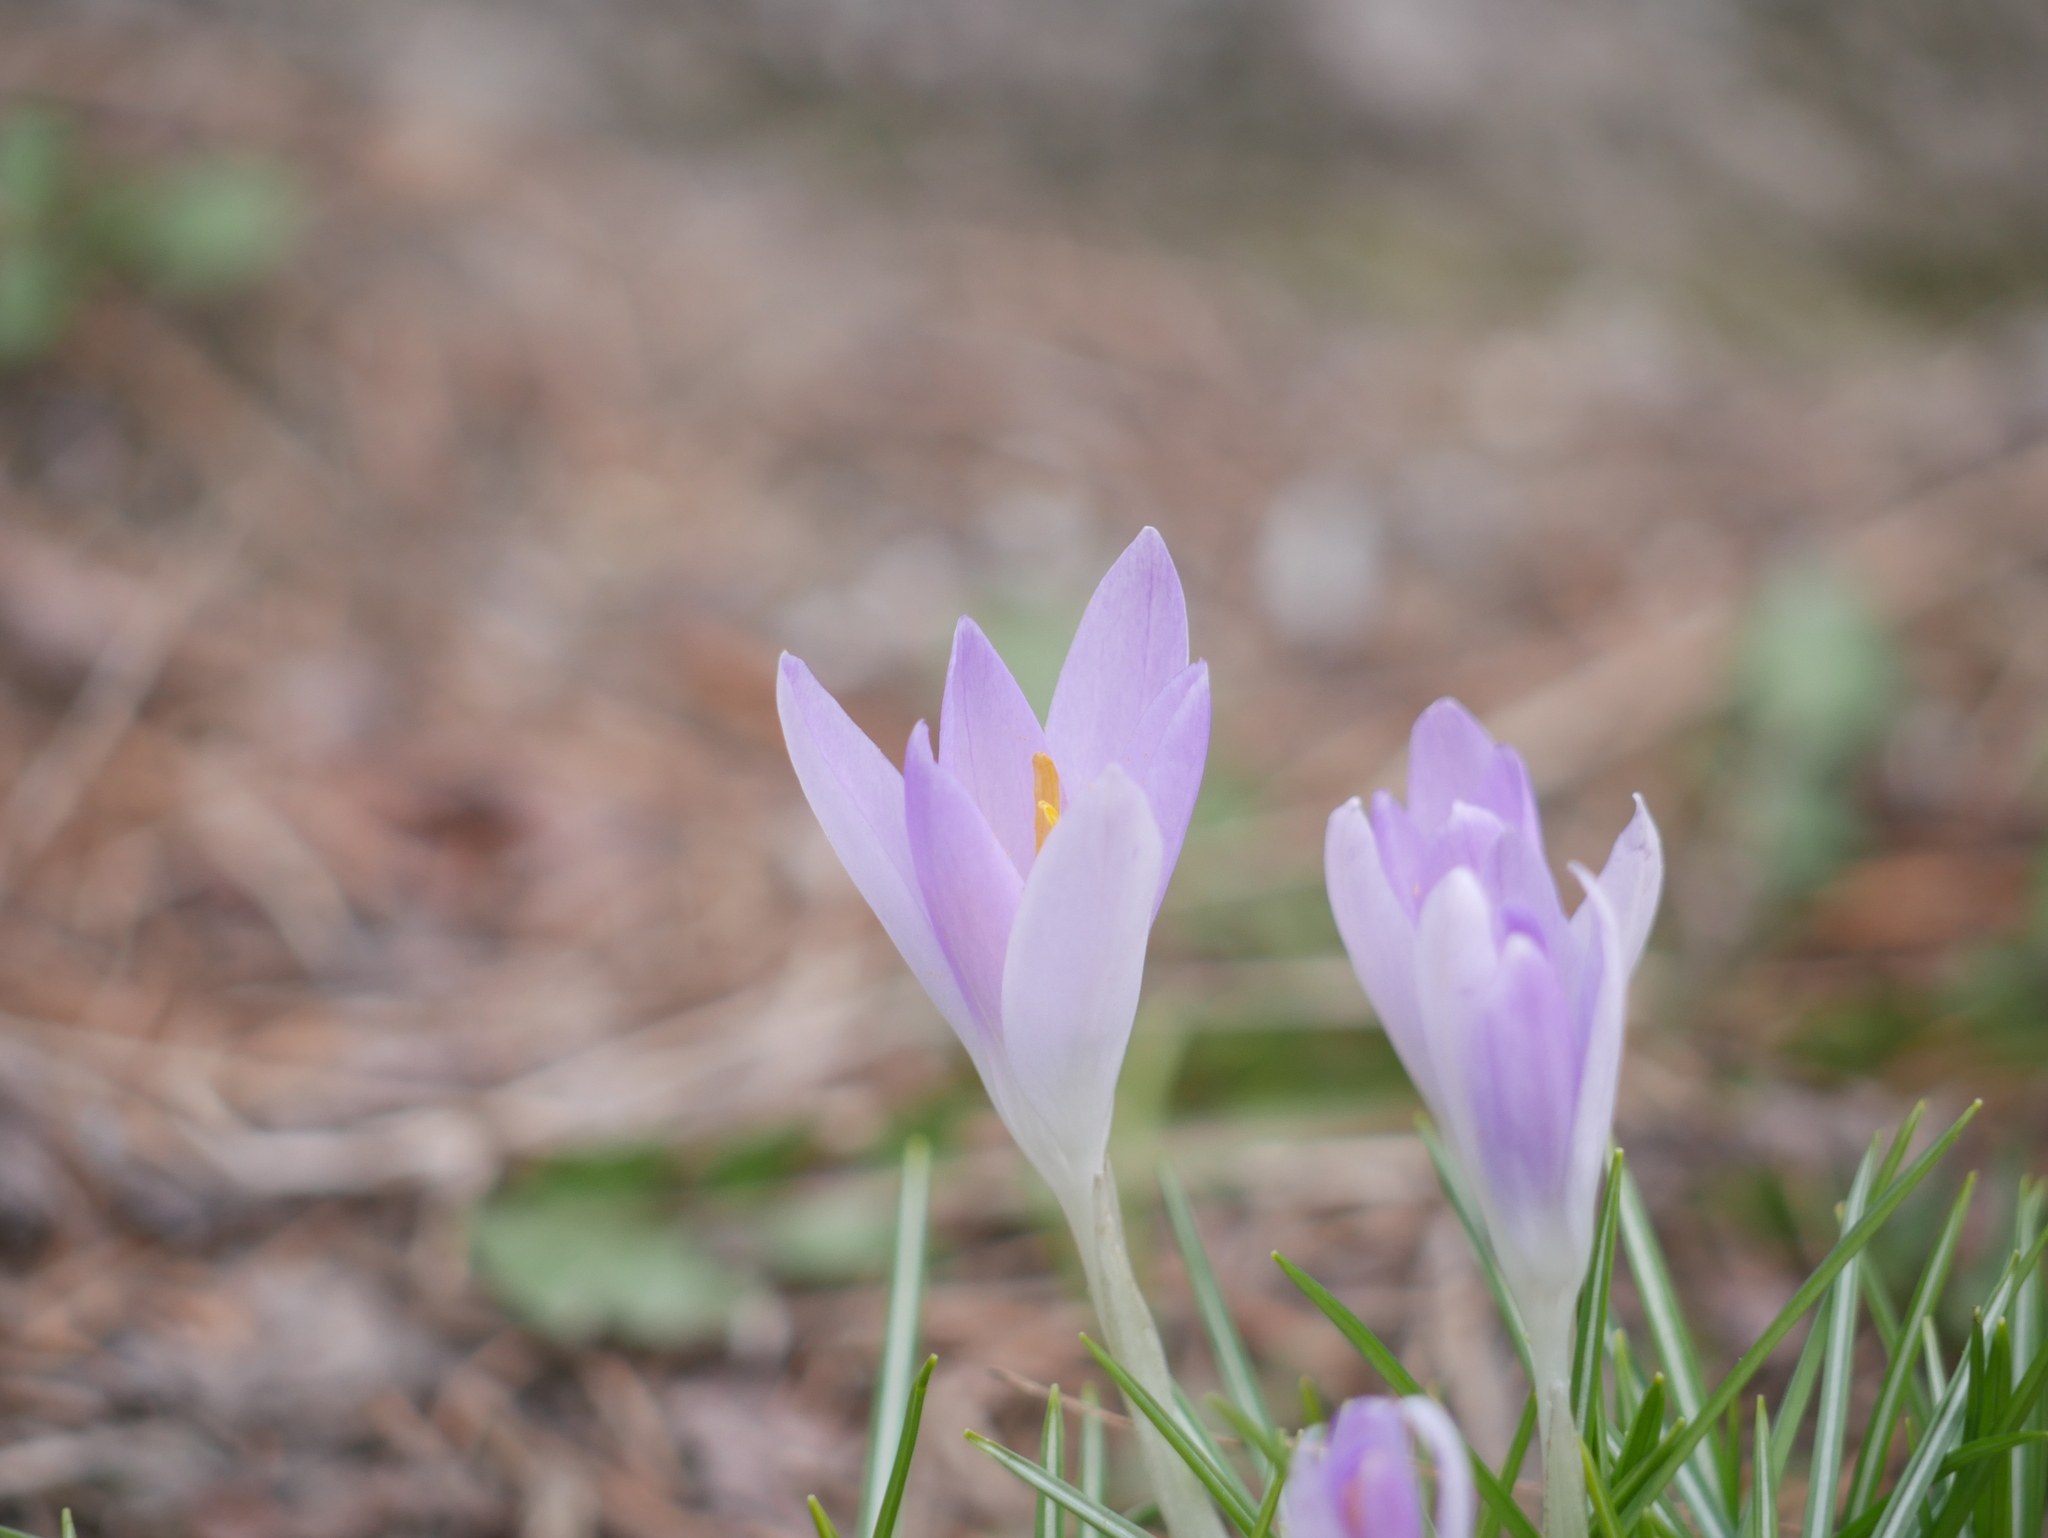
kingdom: Plantae
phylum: Tracheophyta
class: Liliopsida
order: Asparagales
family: Iridaceae
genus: Crocus
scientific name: Crocus tommasinianus
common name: Early crocus
